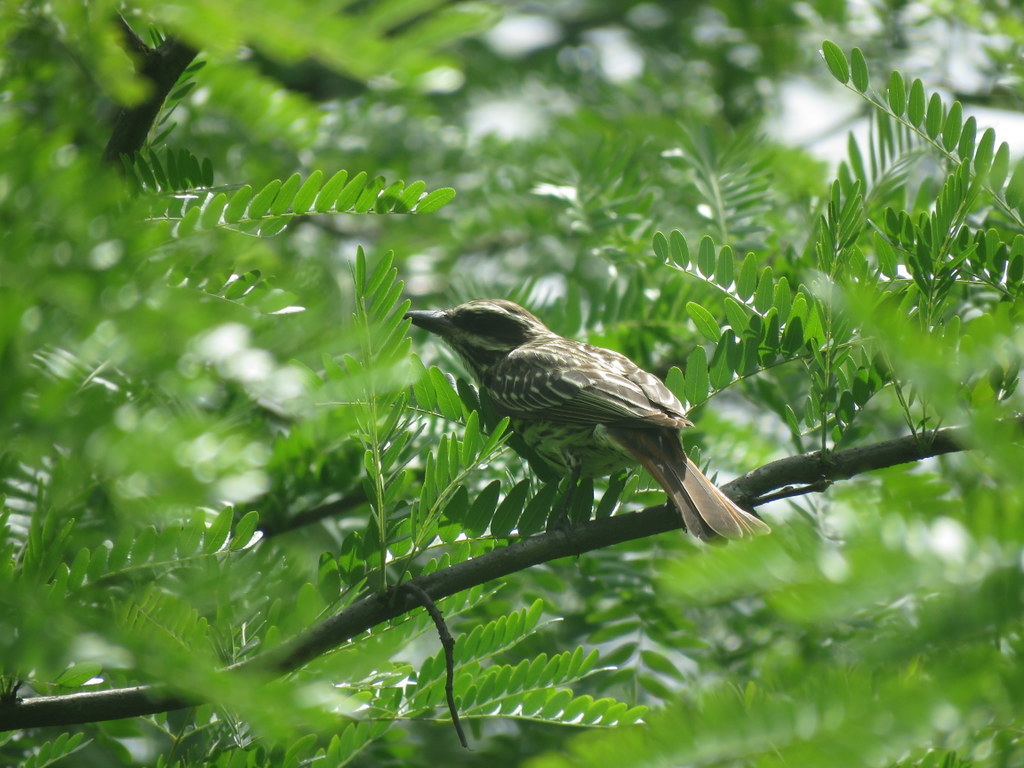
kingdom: Animalia
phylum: Chordata
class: Aves
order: Passeriformes
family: Tyrannidae
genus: Myiodynastes
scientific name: Myiodynastes maculatus
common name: Streaked flycatcher
